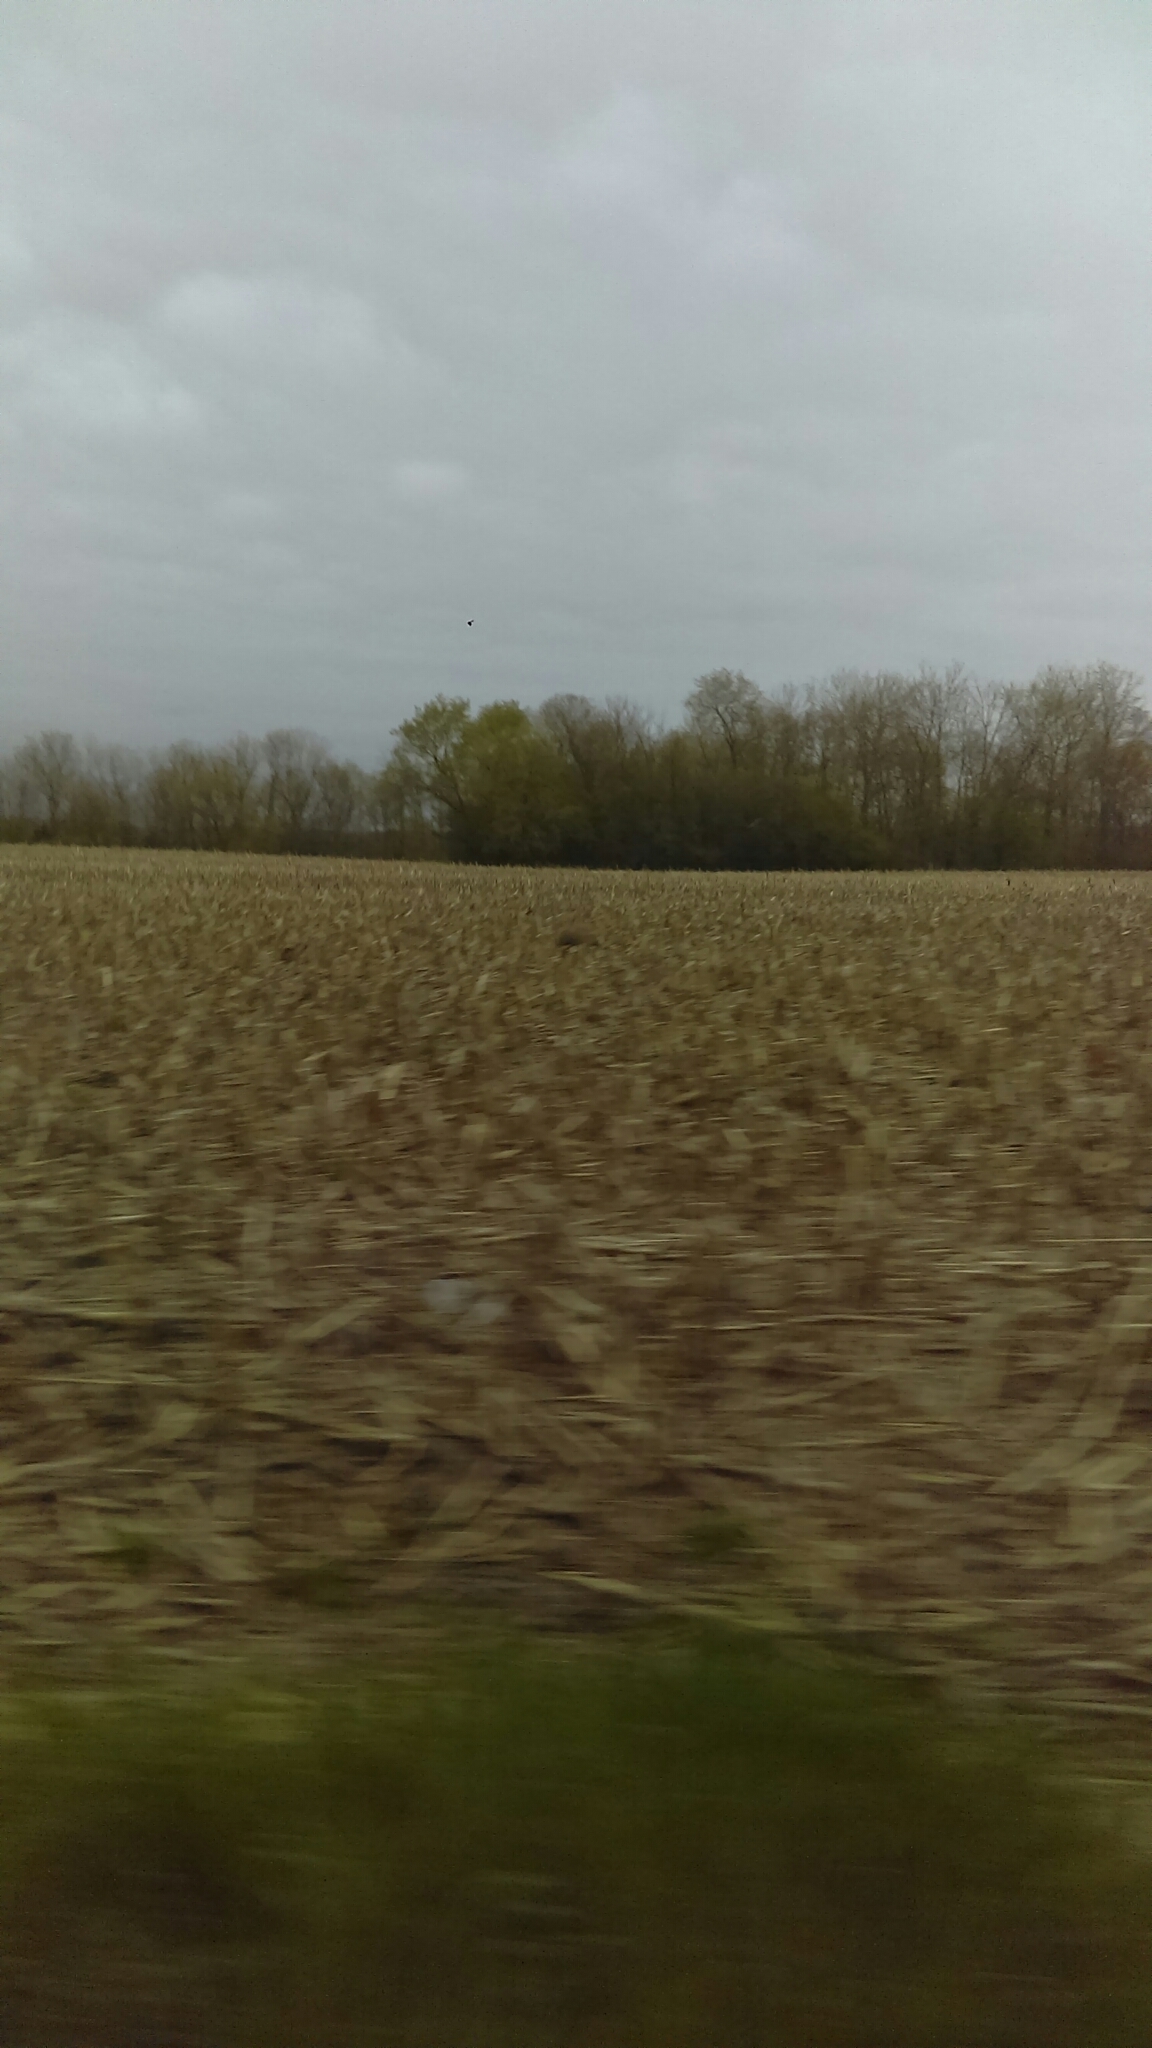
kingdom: Animalia
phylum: Chordata
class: Aves
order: Gruiformes
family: Gruidae
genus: Grus
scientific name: Grus canadensis
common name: Sandhill crane
